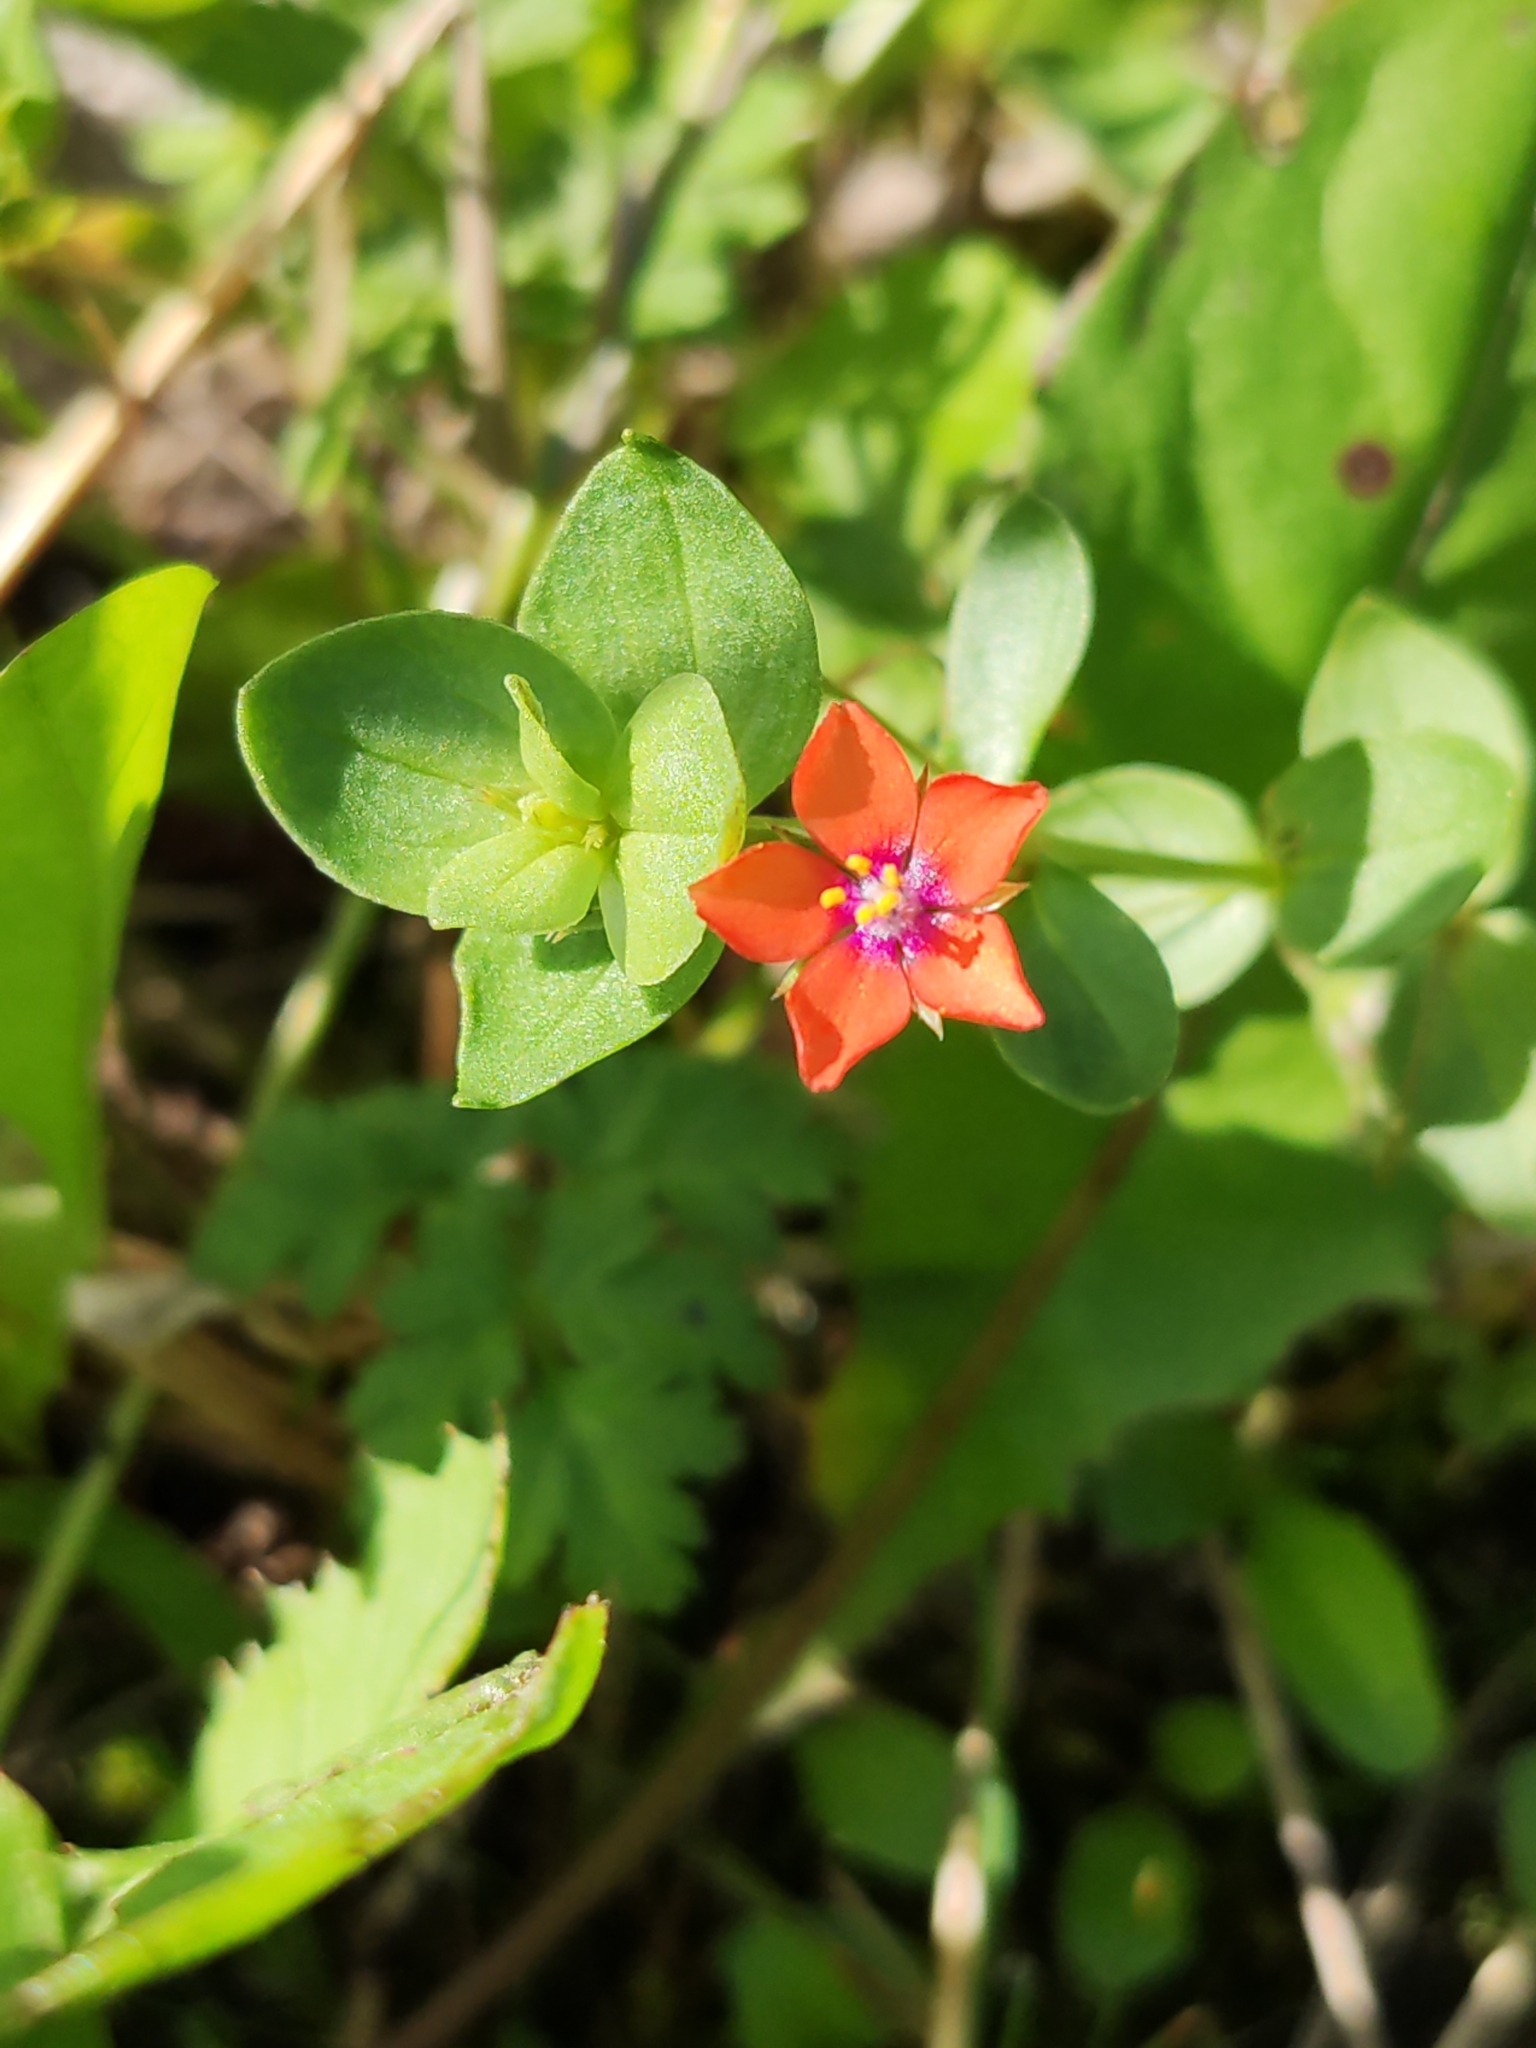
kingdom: Plantae
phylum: Tracheophyta
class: Magnoliopsida
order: Ericales
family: Primulaceae
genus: Lysimachia
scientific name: Lysimachia arvensis
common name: Scarlet pimpernel
